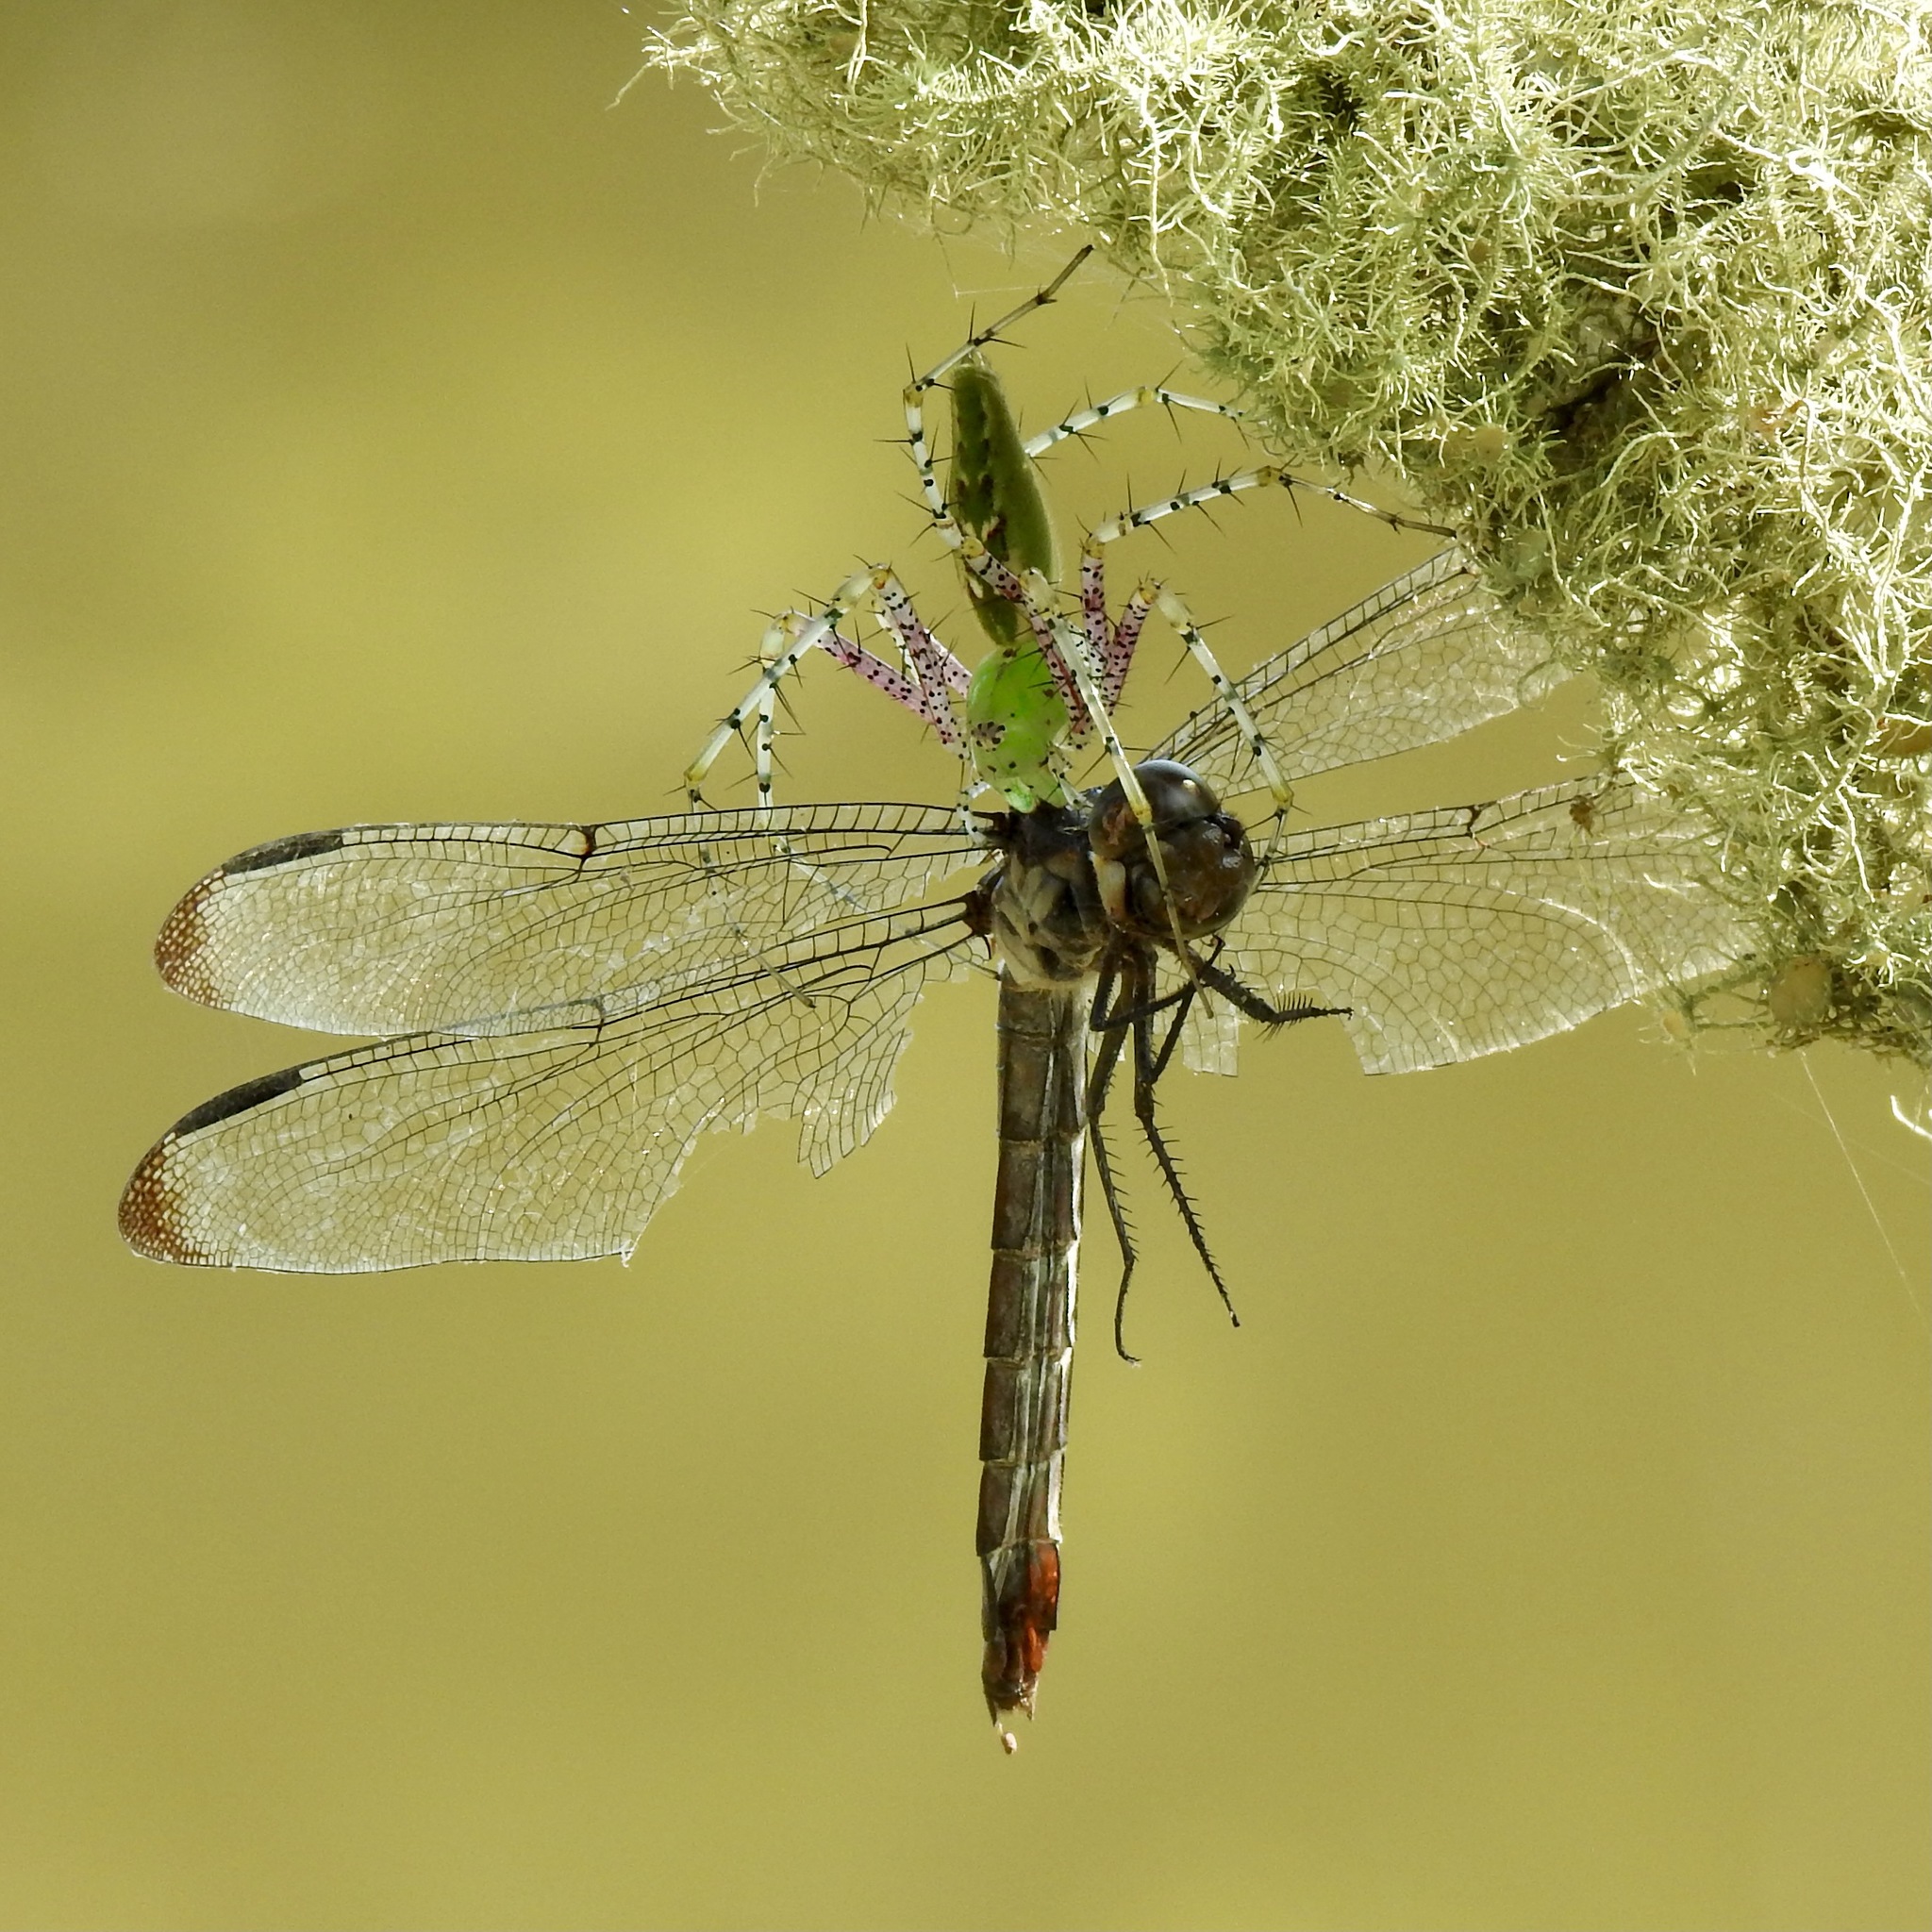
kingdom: Animalia
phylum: Arthropoda
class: Insecta
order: Odonata
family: Libellulidae
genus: Libellula
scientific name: Libellula incesta
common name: Slaty skimmer
